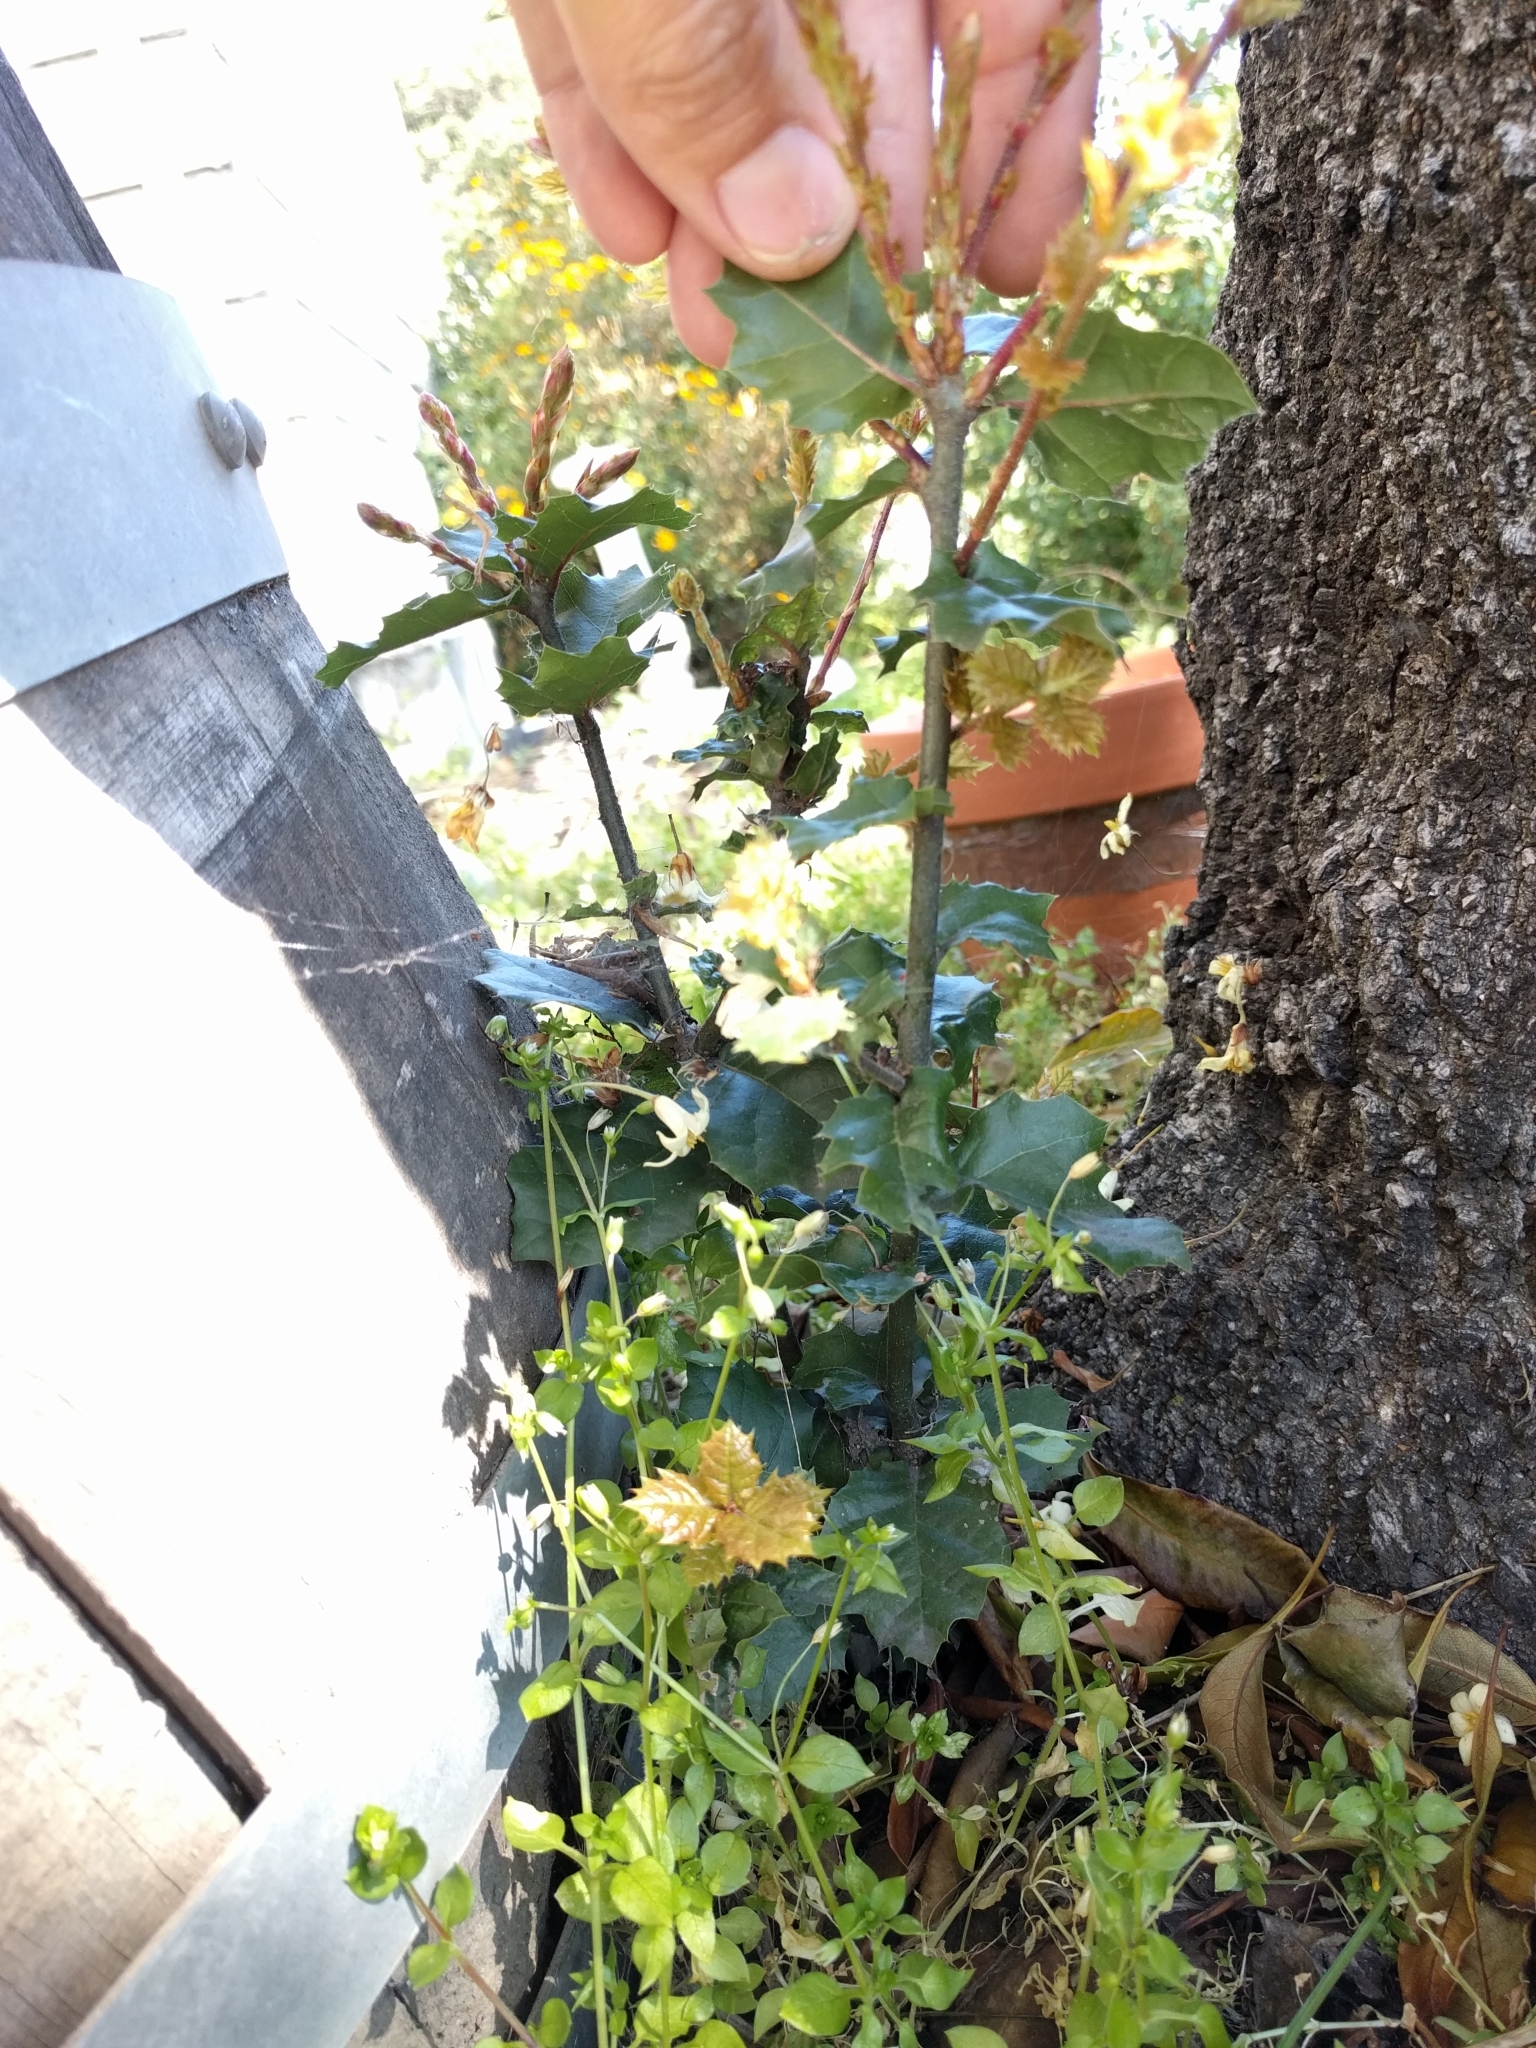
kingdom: Plantae
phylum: Tracheophyta
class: Magnoliopsida
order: Fagales
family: Fagaceae
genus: Quercus
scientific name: Quercus agrifolia
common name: California live oak
